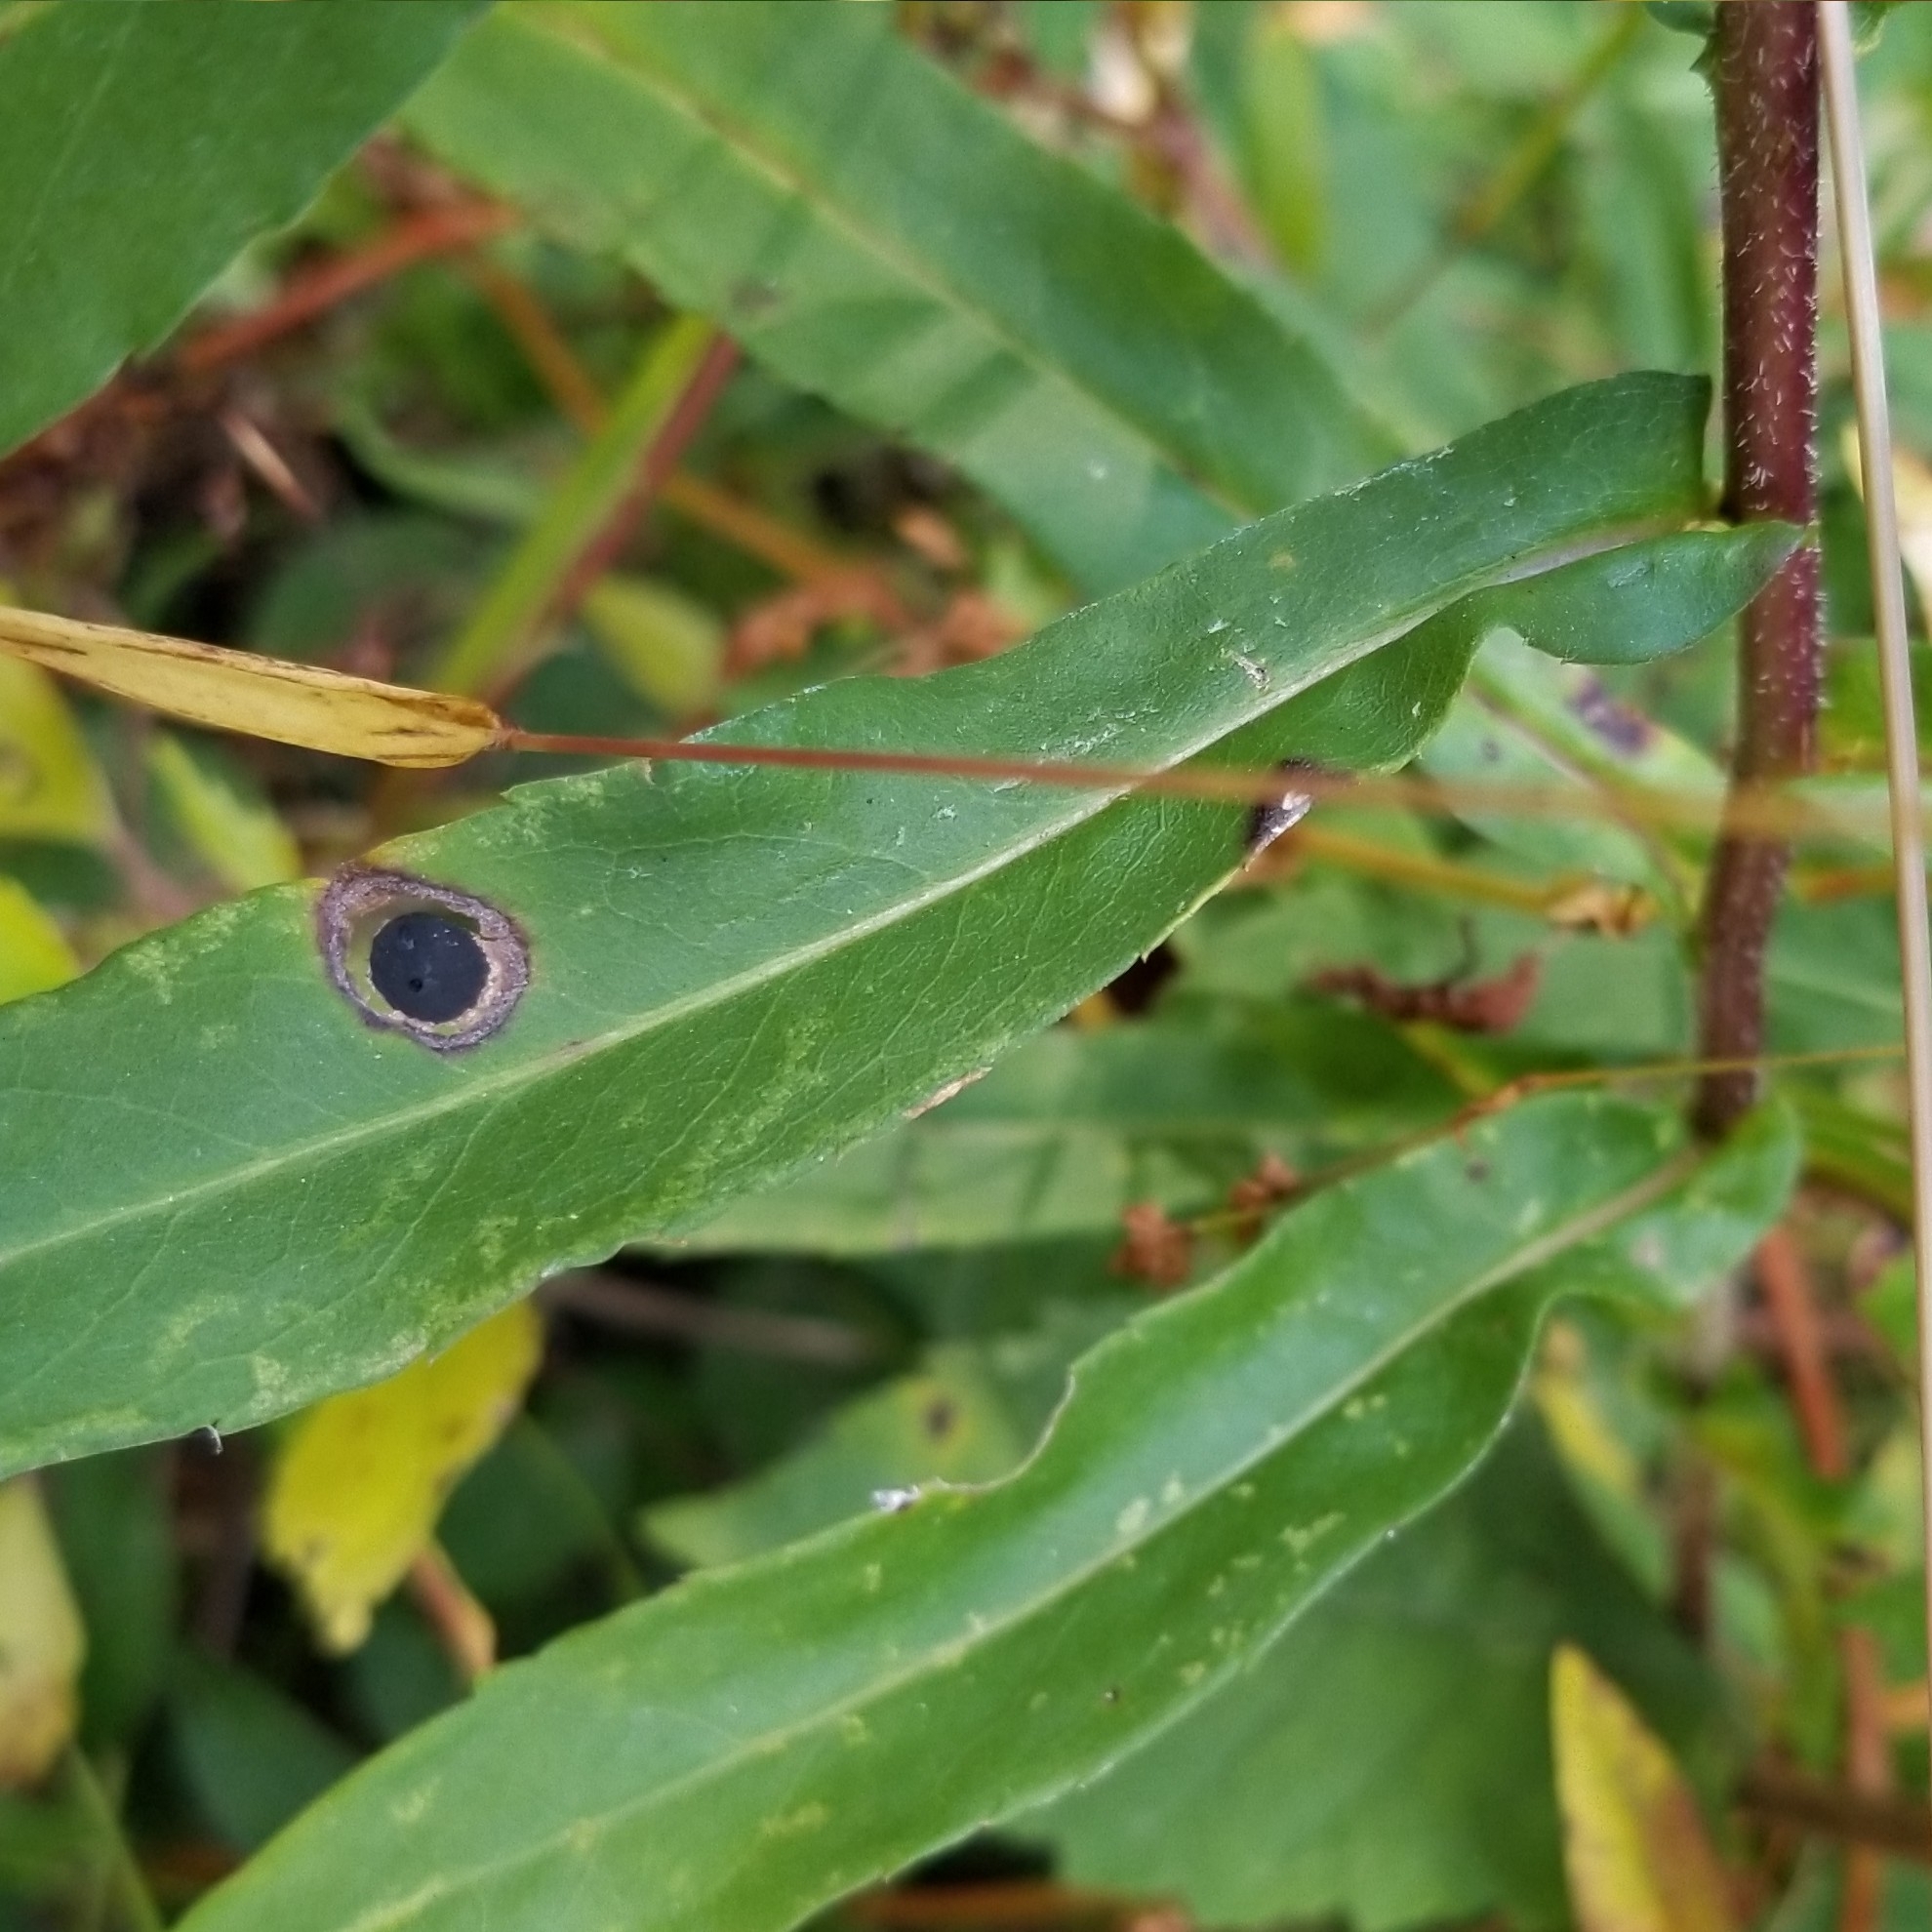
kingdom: Animalia
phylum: Arthropoda
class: Insecta
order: Diptera
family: Cecidomyiidae
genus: Asteromyia
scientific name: Asteromyia laeviana
